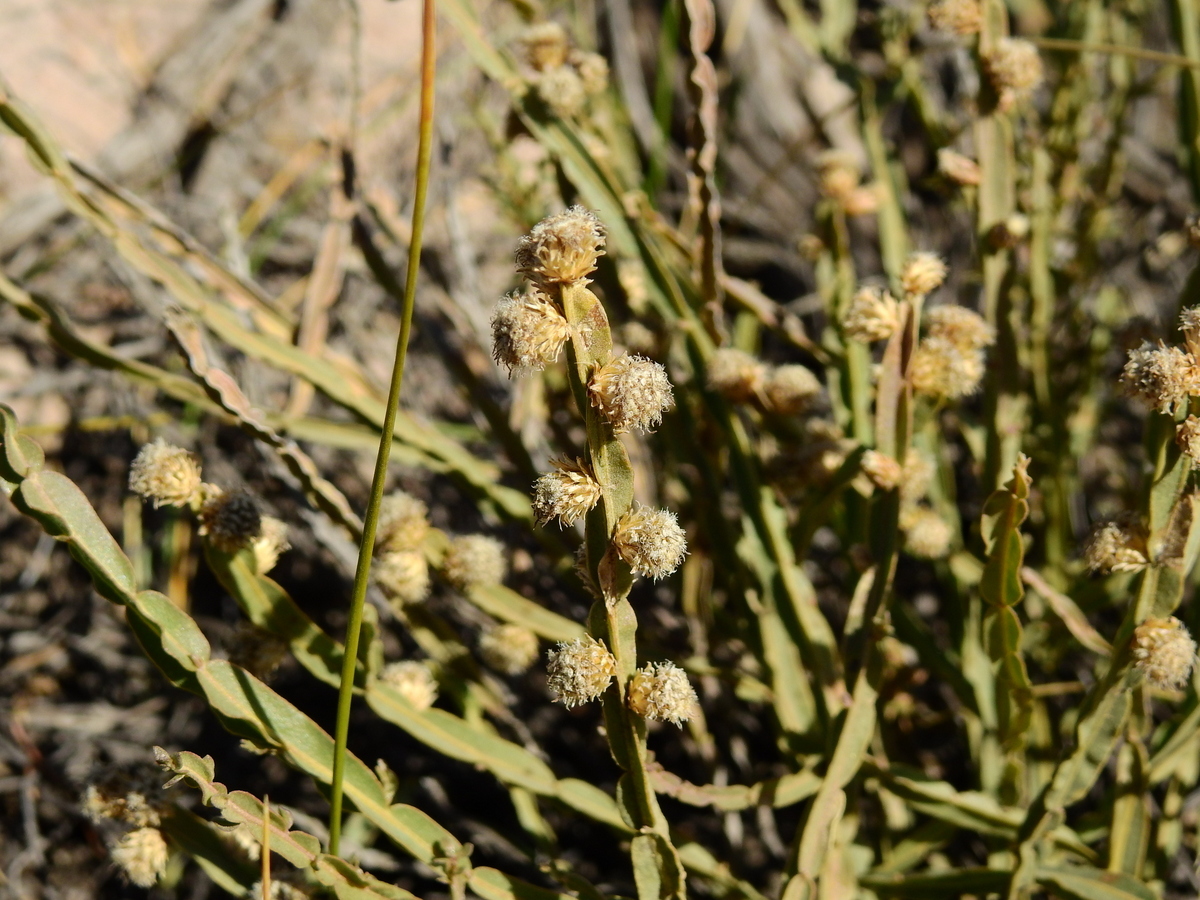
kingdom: Plantae
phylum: Tracheophyta
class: Magnoliopsida
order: Asterales
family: Asteraceae
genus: Baccharis
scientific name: Baccharis trimera
